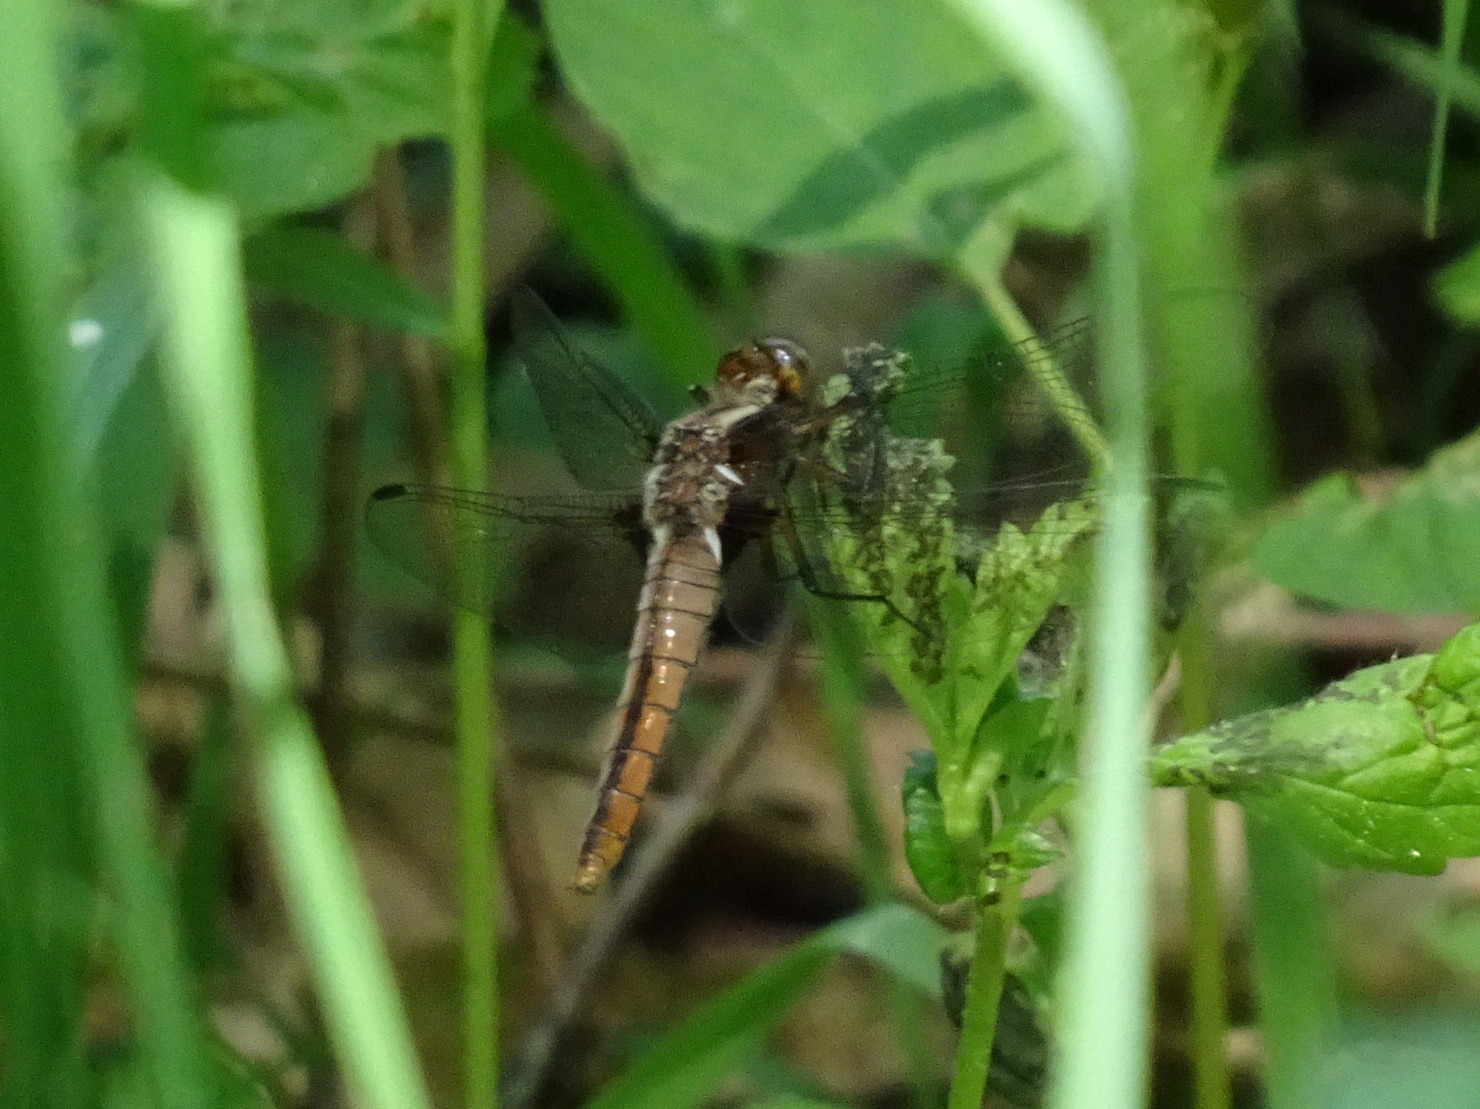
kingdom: Animalia
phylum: Arthropoda
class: Insecta
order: Odonata
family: Libellulidae
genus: Ladona
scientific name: Ladona julia
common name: Chalk-fronted corporal
